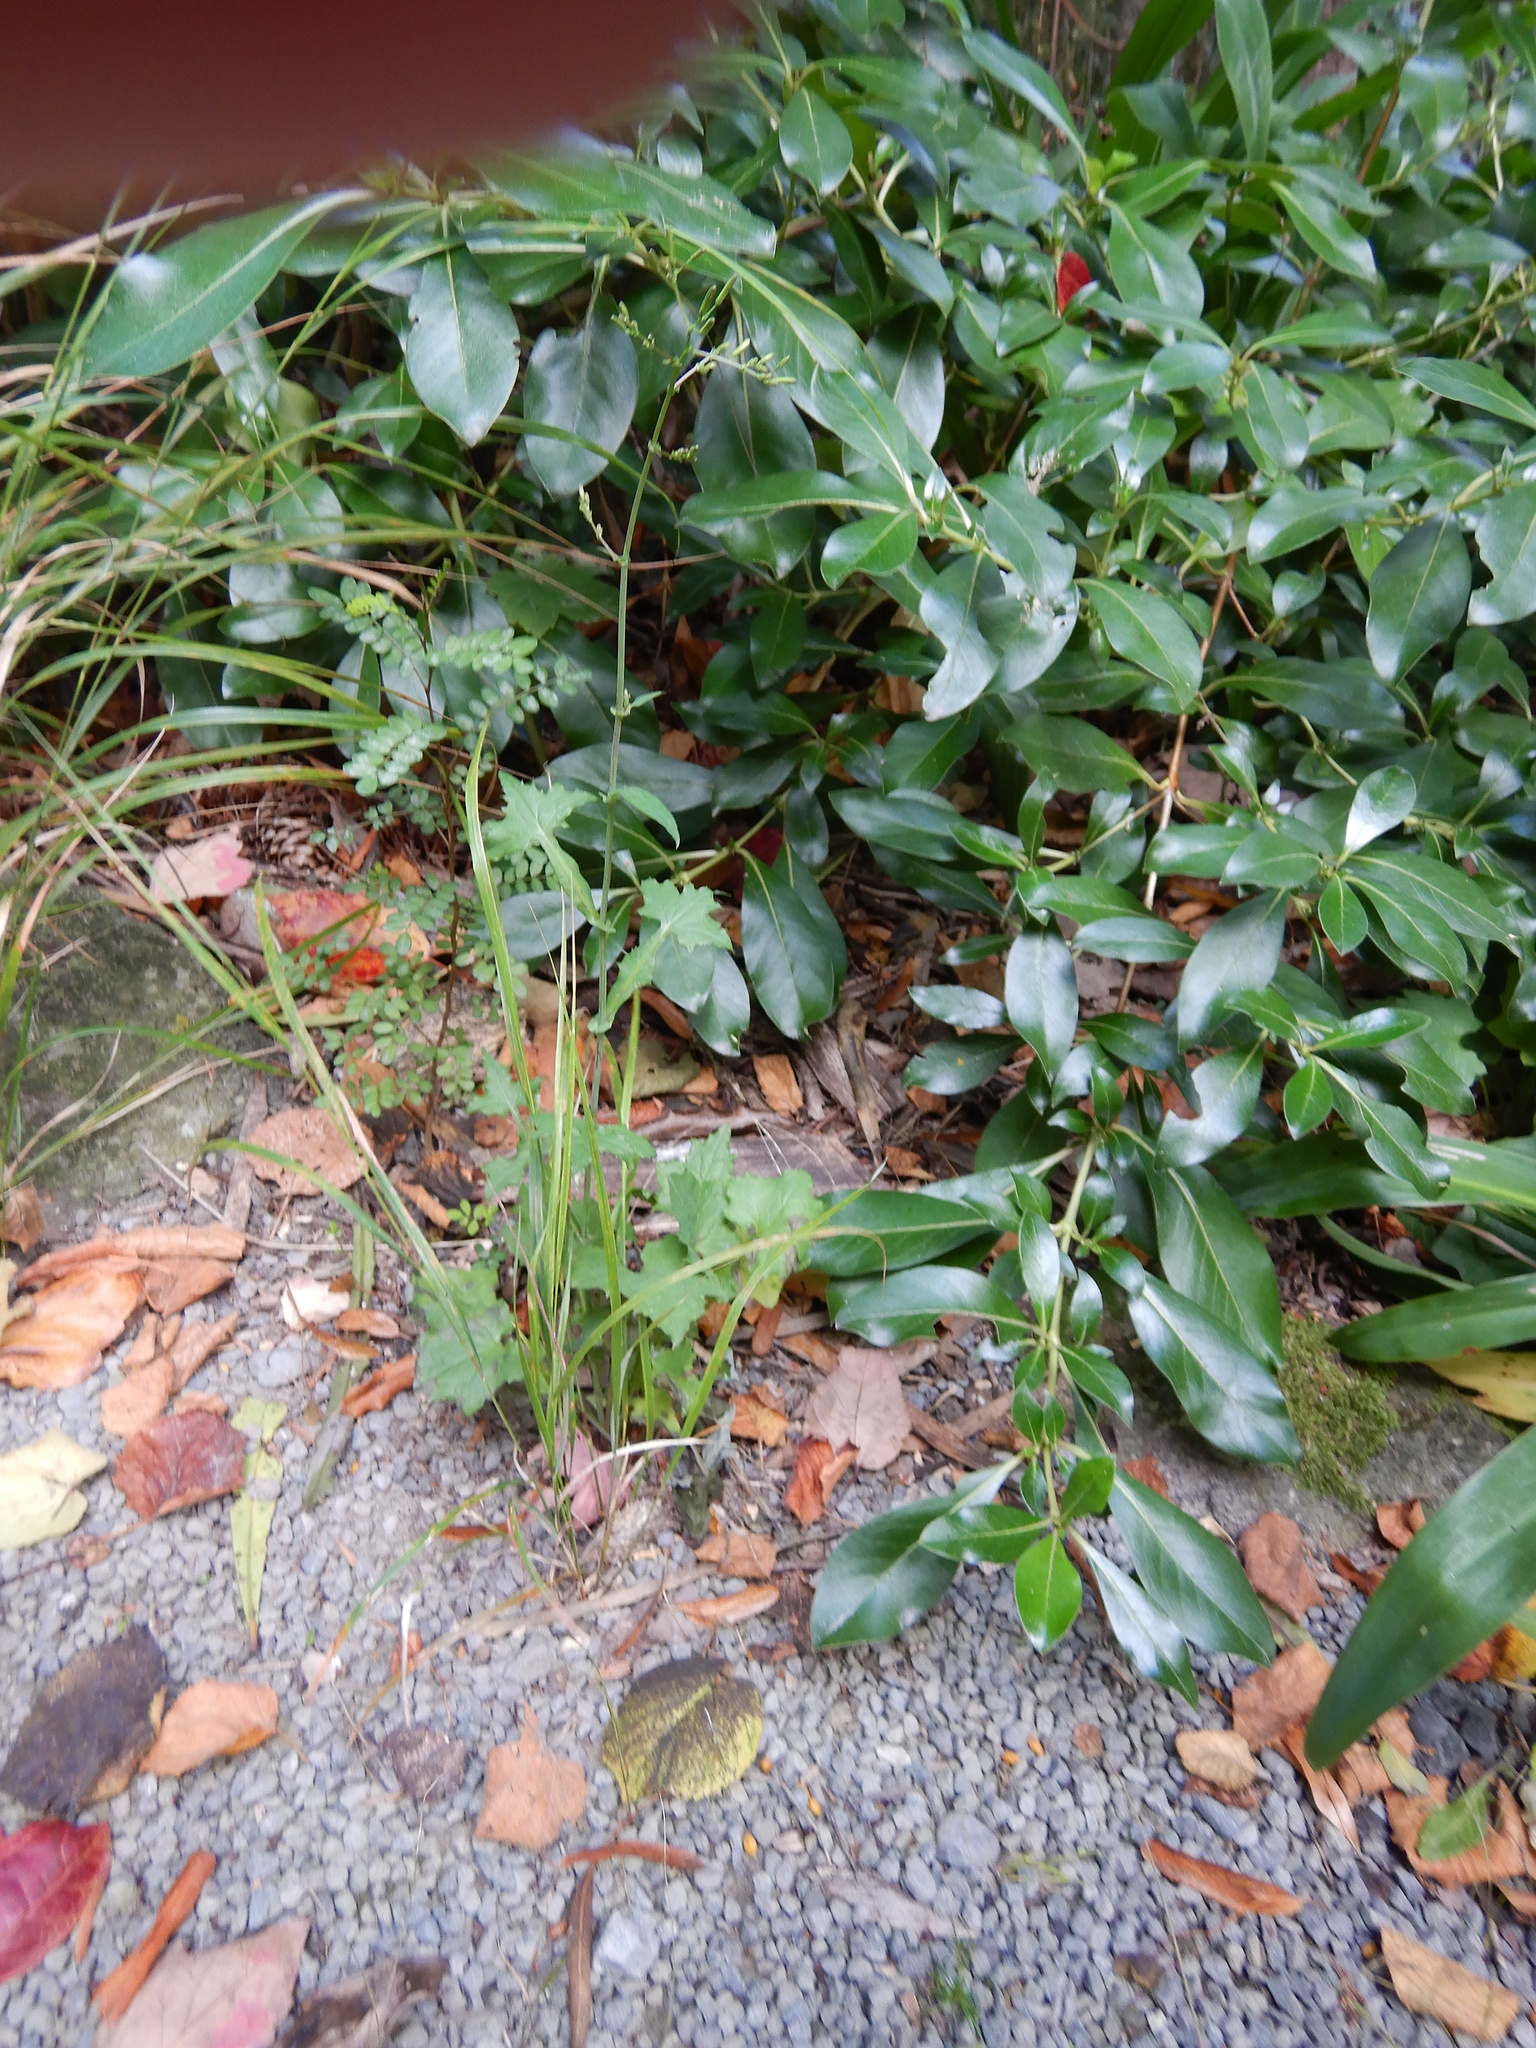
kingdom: Plantae
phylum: Tracheophyta
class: Magnoliopsida
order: Asterales
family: Asteraceae
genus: Mycelis
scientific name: Mycelis muralis
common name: Wall lettuce
